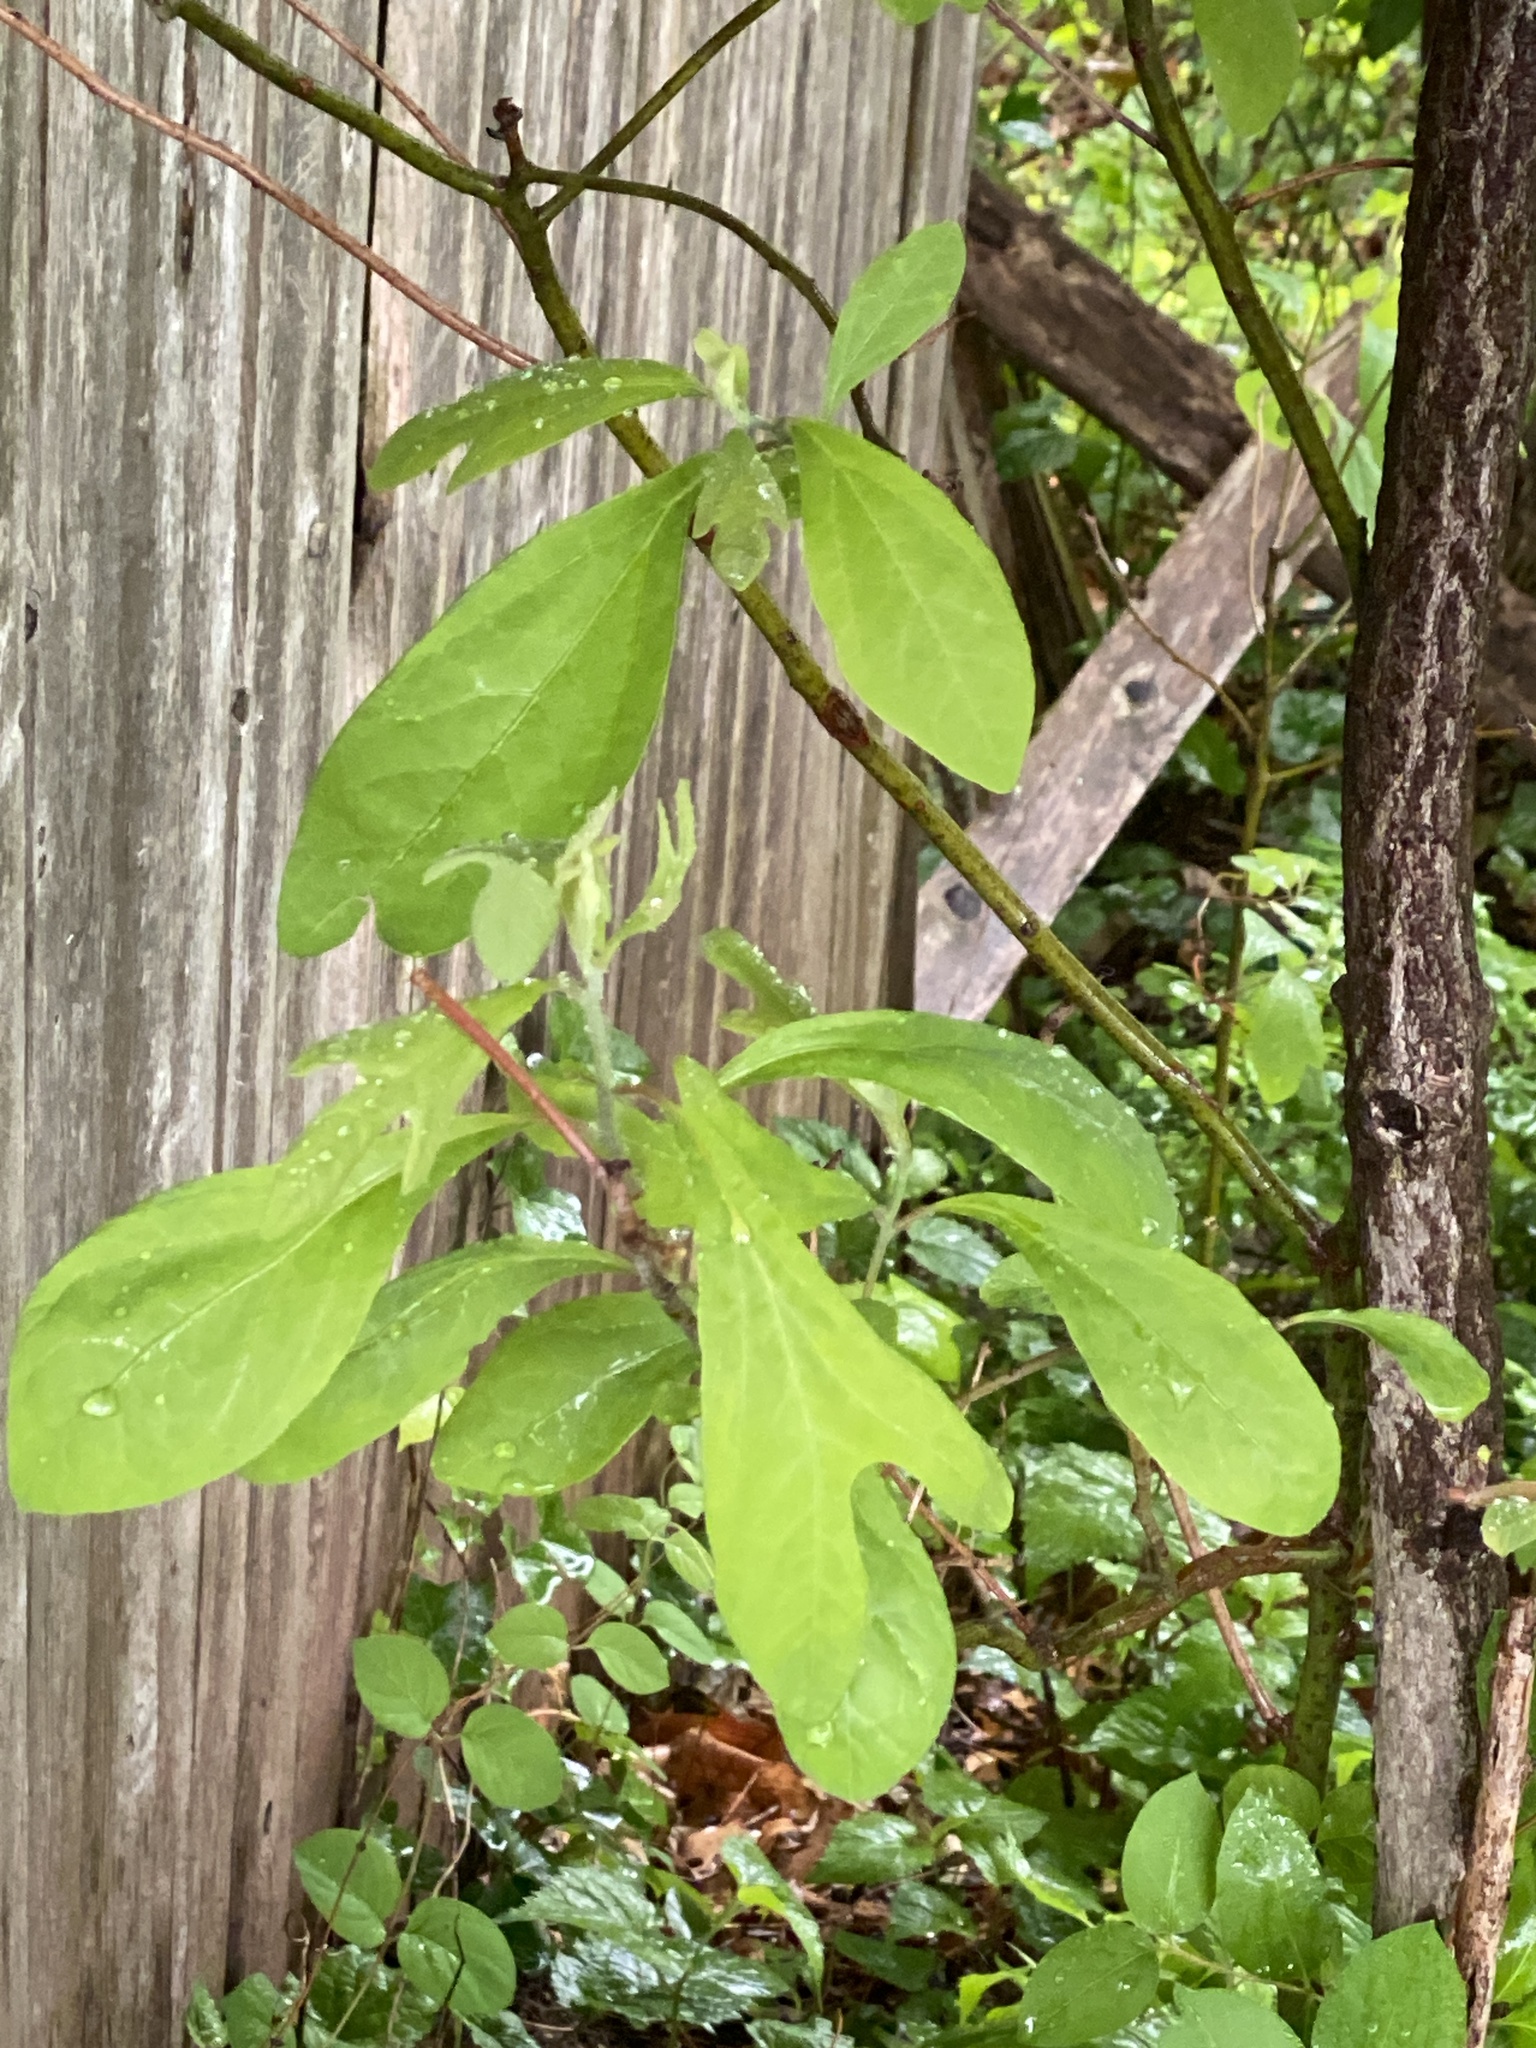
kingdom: Plantae
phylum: Tracheophyta
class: Magnoliopsida
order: Laurales
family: Lauraceae
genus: Sassafras
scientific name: Sassafras albidum
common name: Sassafras
